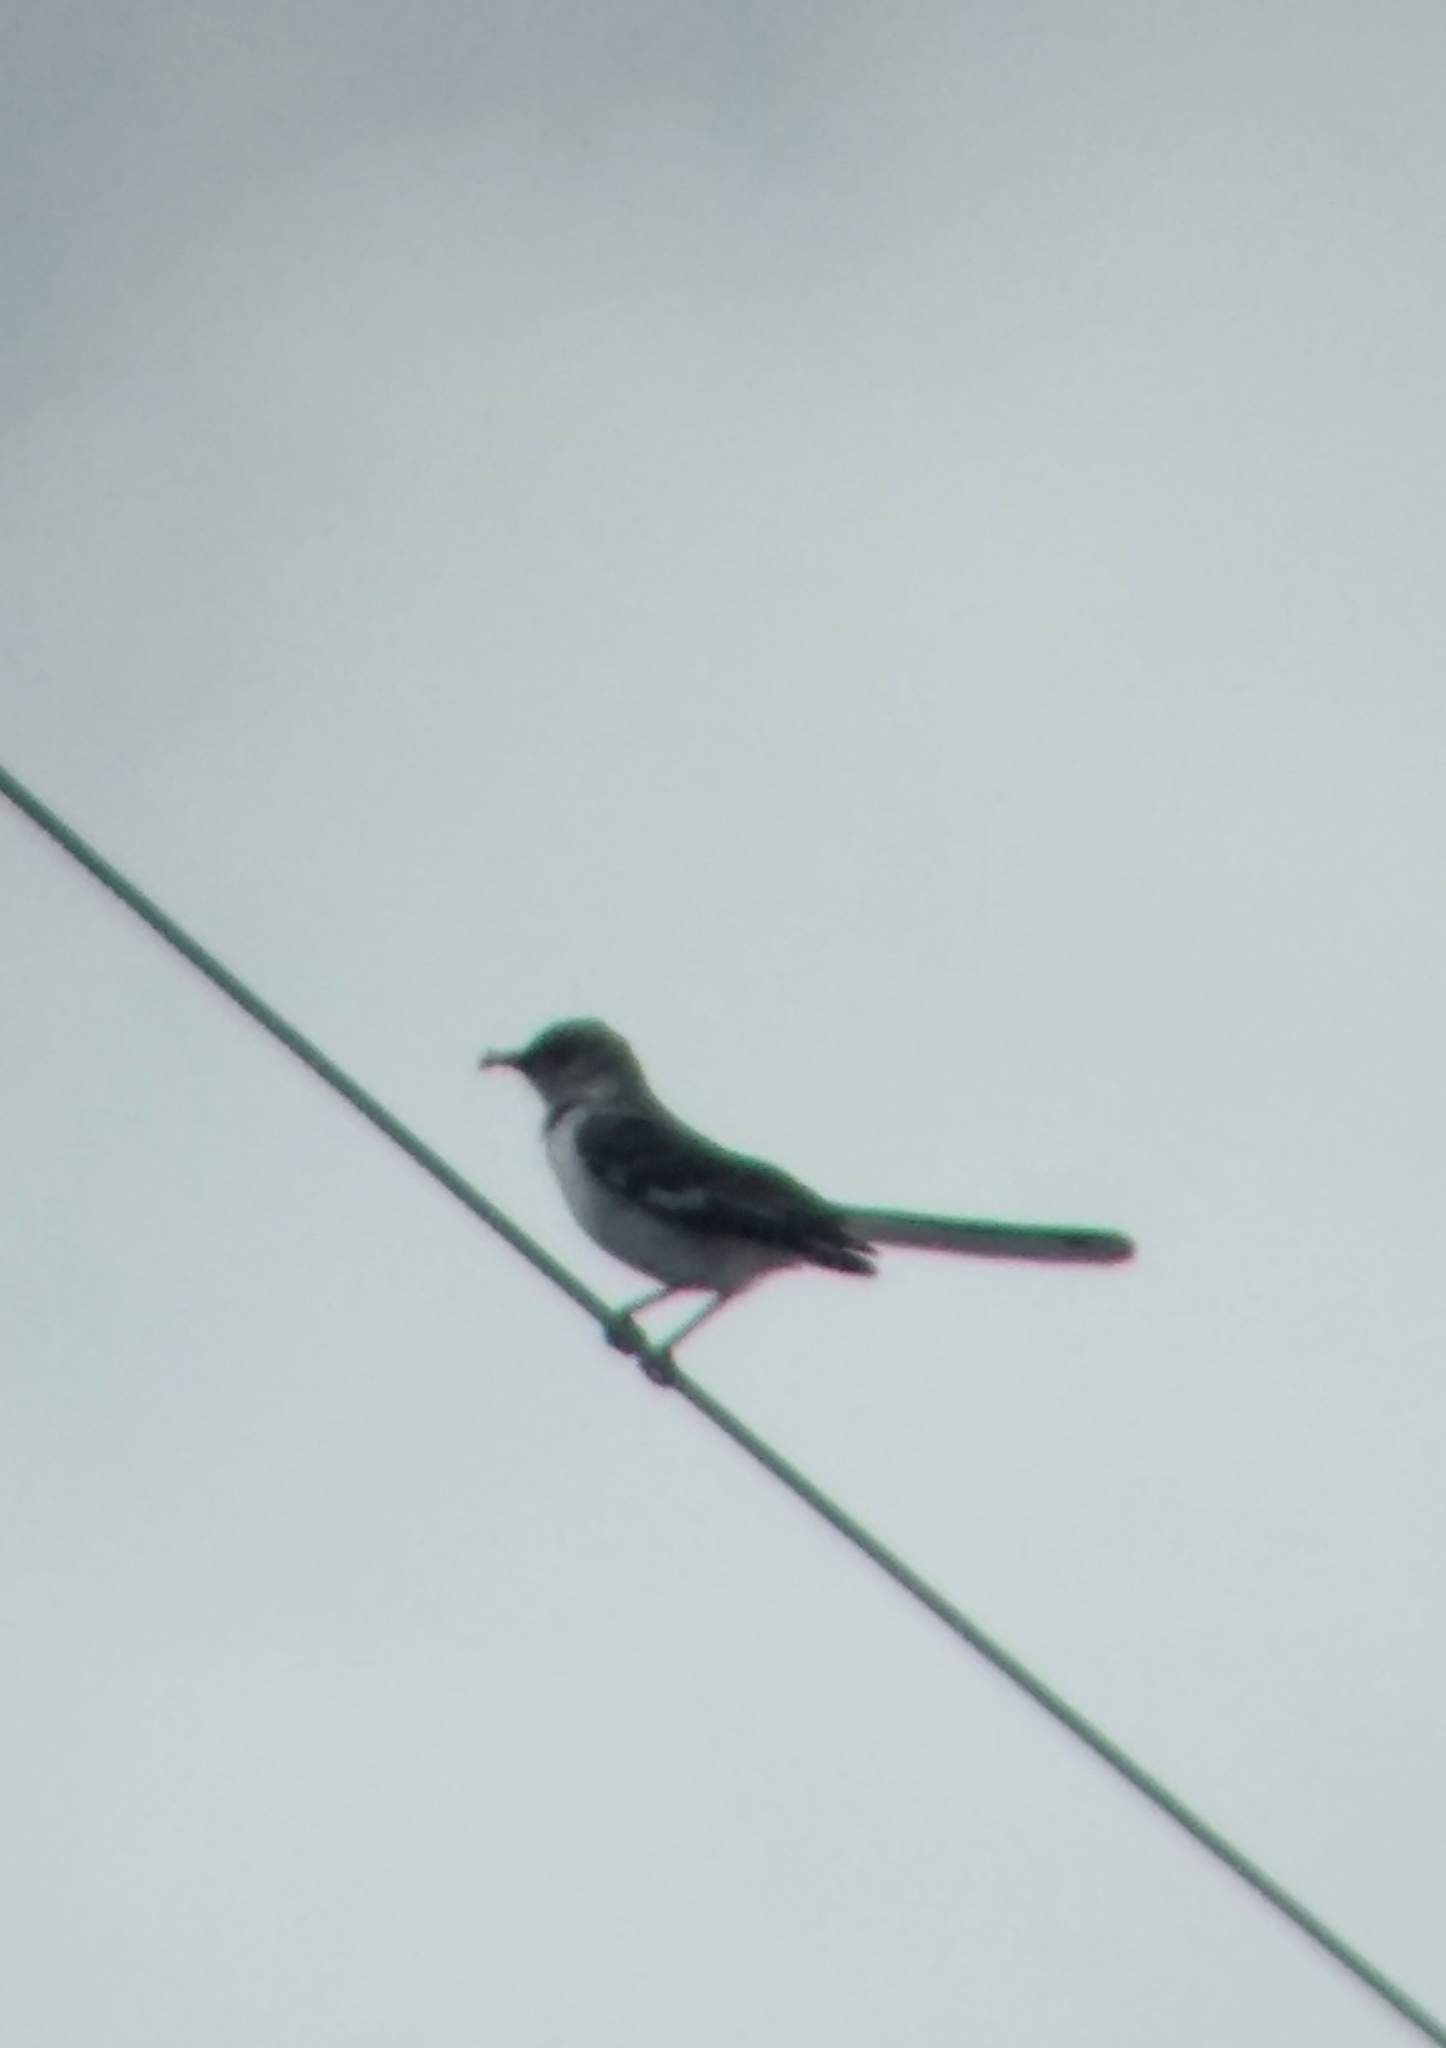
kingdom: Animalia
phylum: Chordata
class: Aves
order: Passeriformes
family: Mimidae
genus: Mimus
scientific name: Mimus polyglottos
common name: Northern mockingbird
